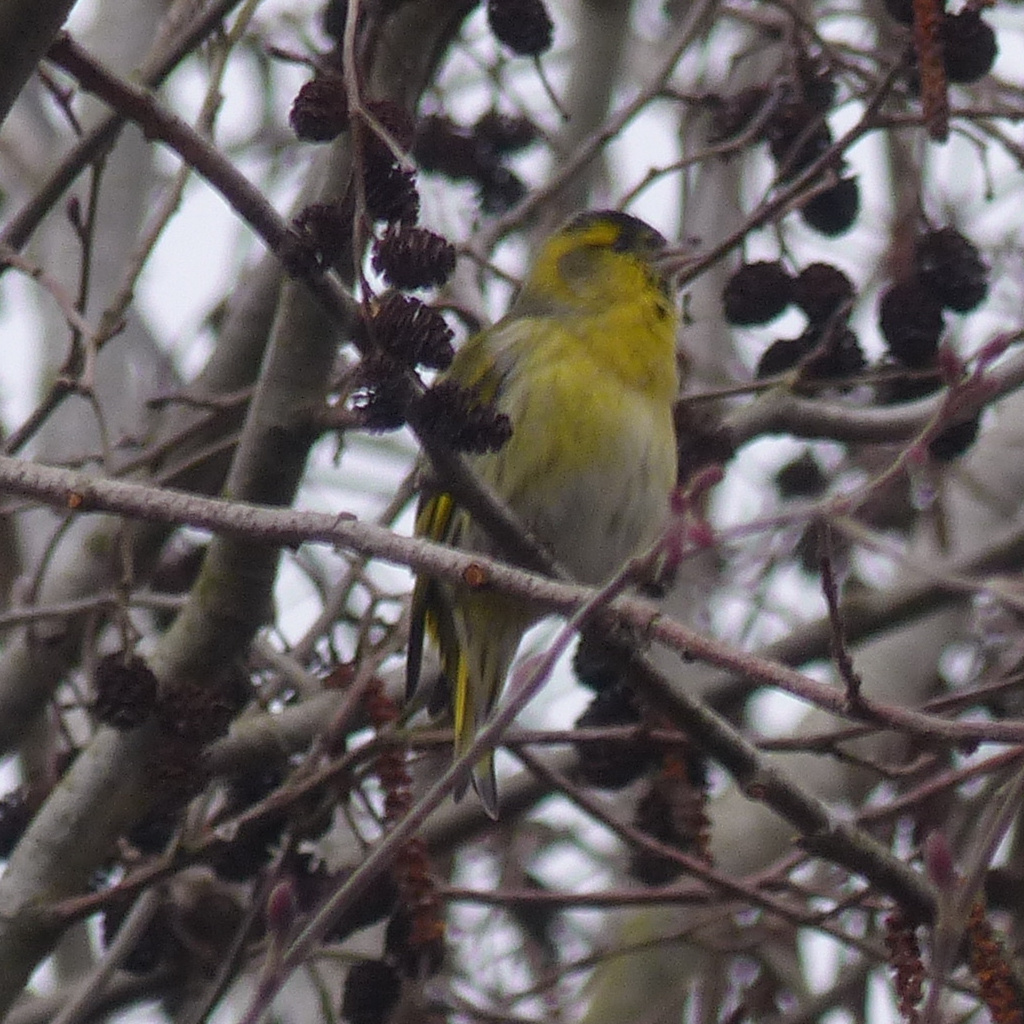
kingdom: Animalia
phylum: Chordata
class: Aves
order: Passeriformes
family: Fringillidae
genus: Spinus
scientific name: Spinus spinus
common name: Eurasian siskin
